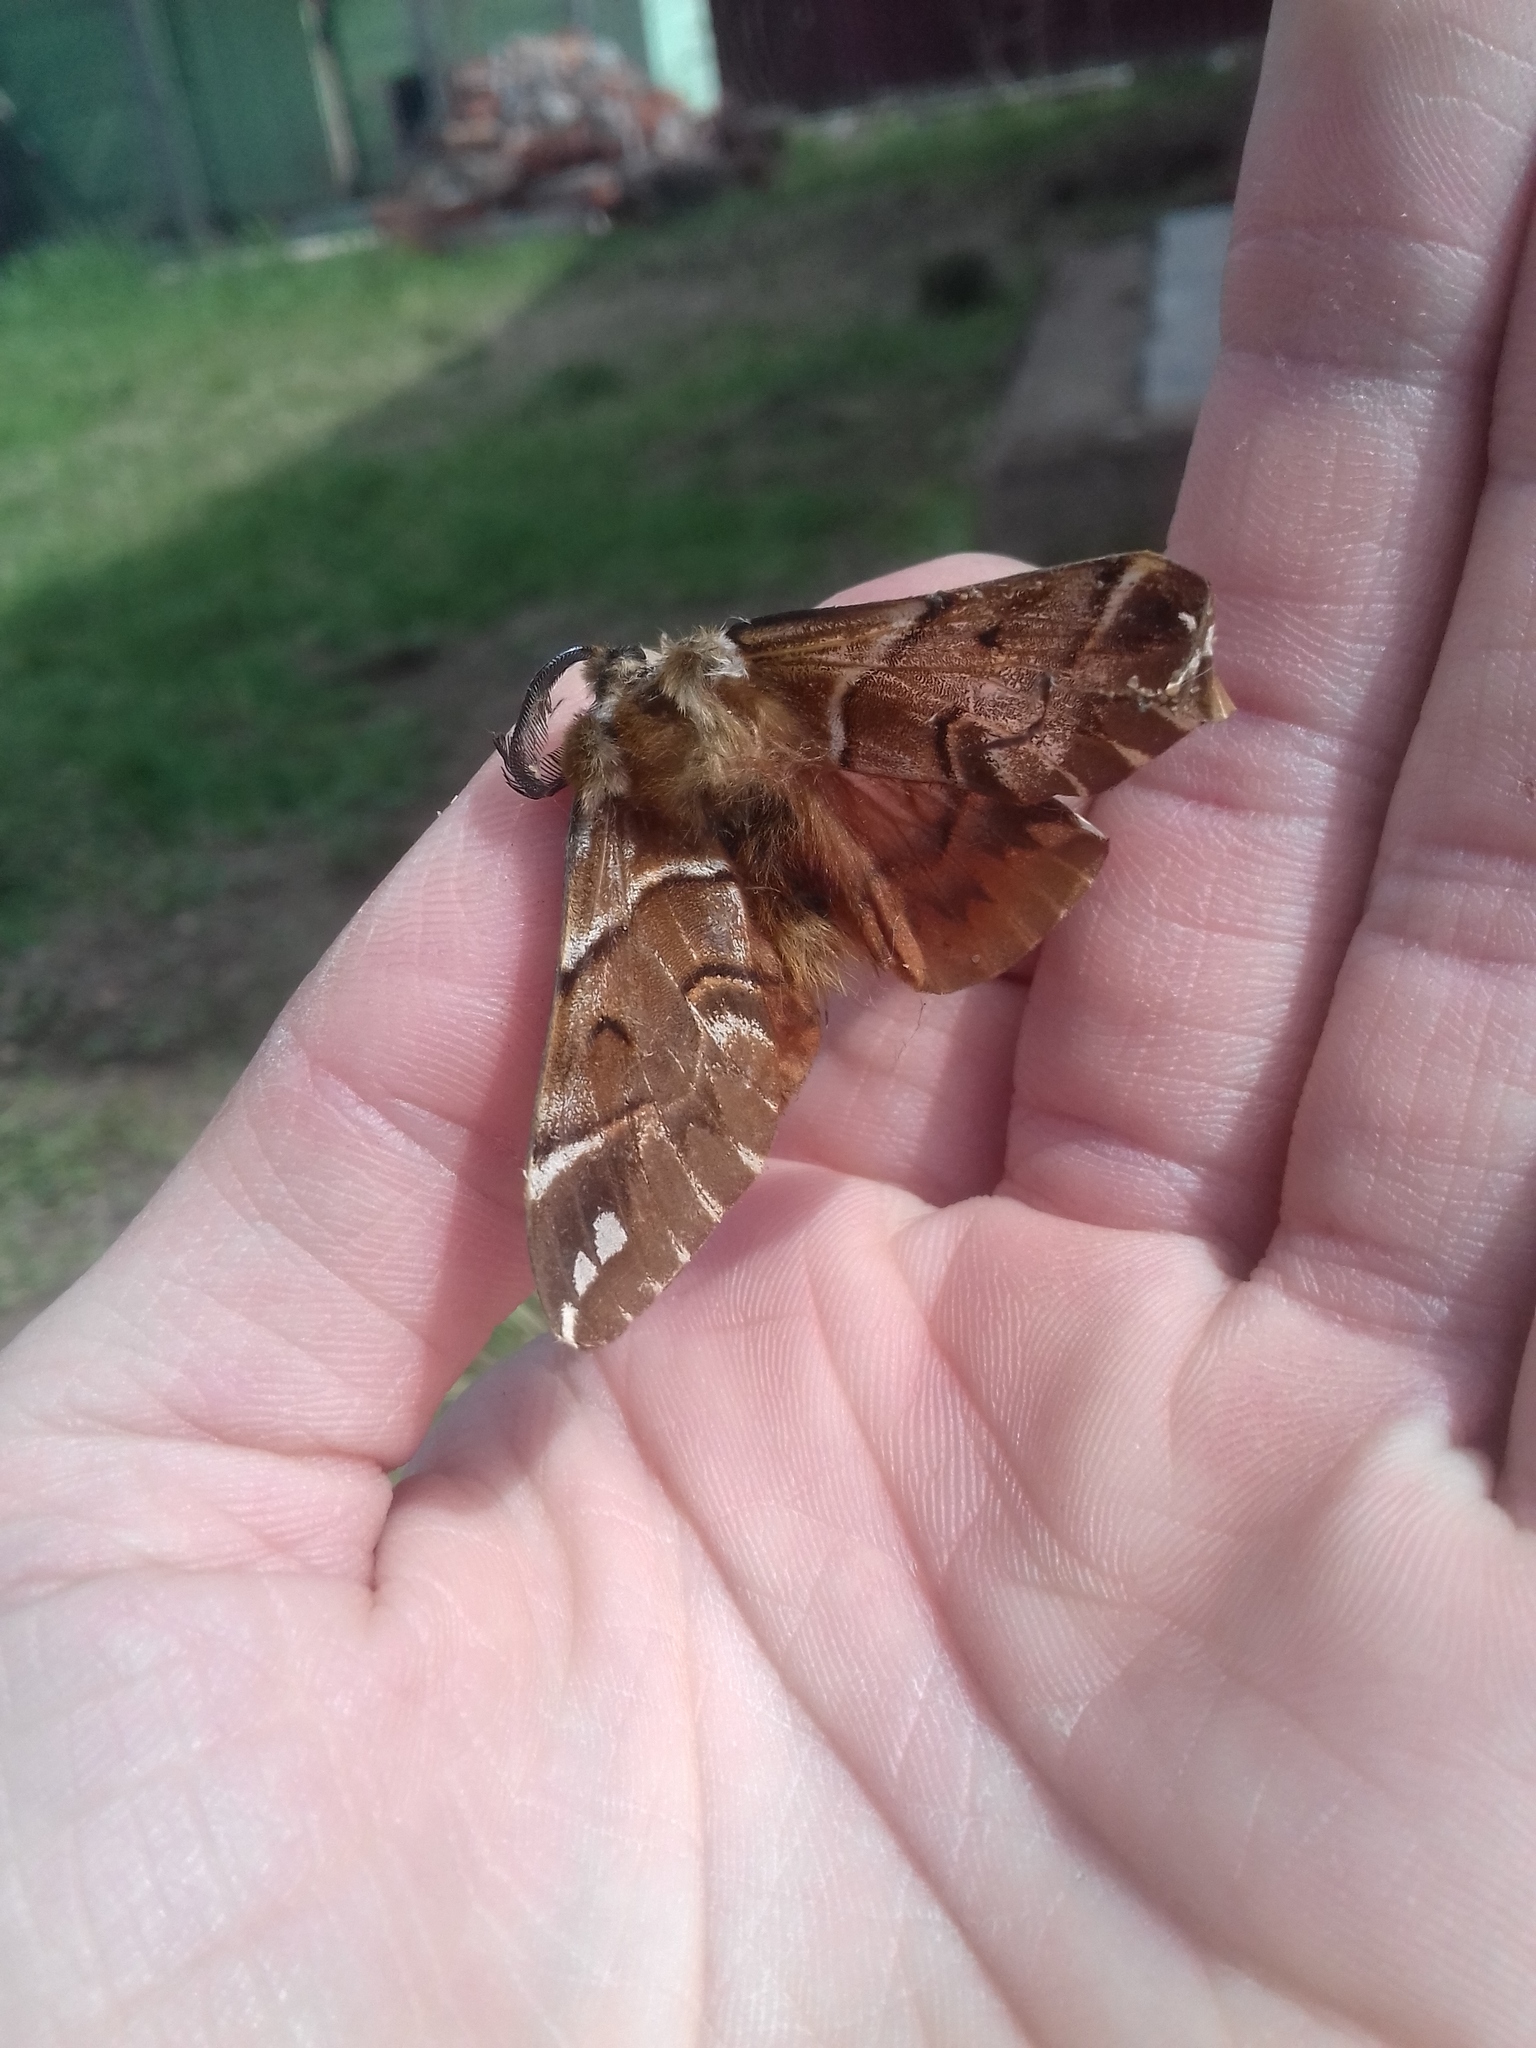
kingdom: Animalia
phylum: Arthropoda
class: Insecta
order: Lepidoptera
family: Endromidae
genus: Endromis
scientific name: Endromis versicolora
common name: Kentish glory
